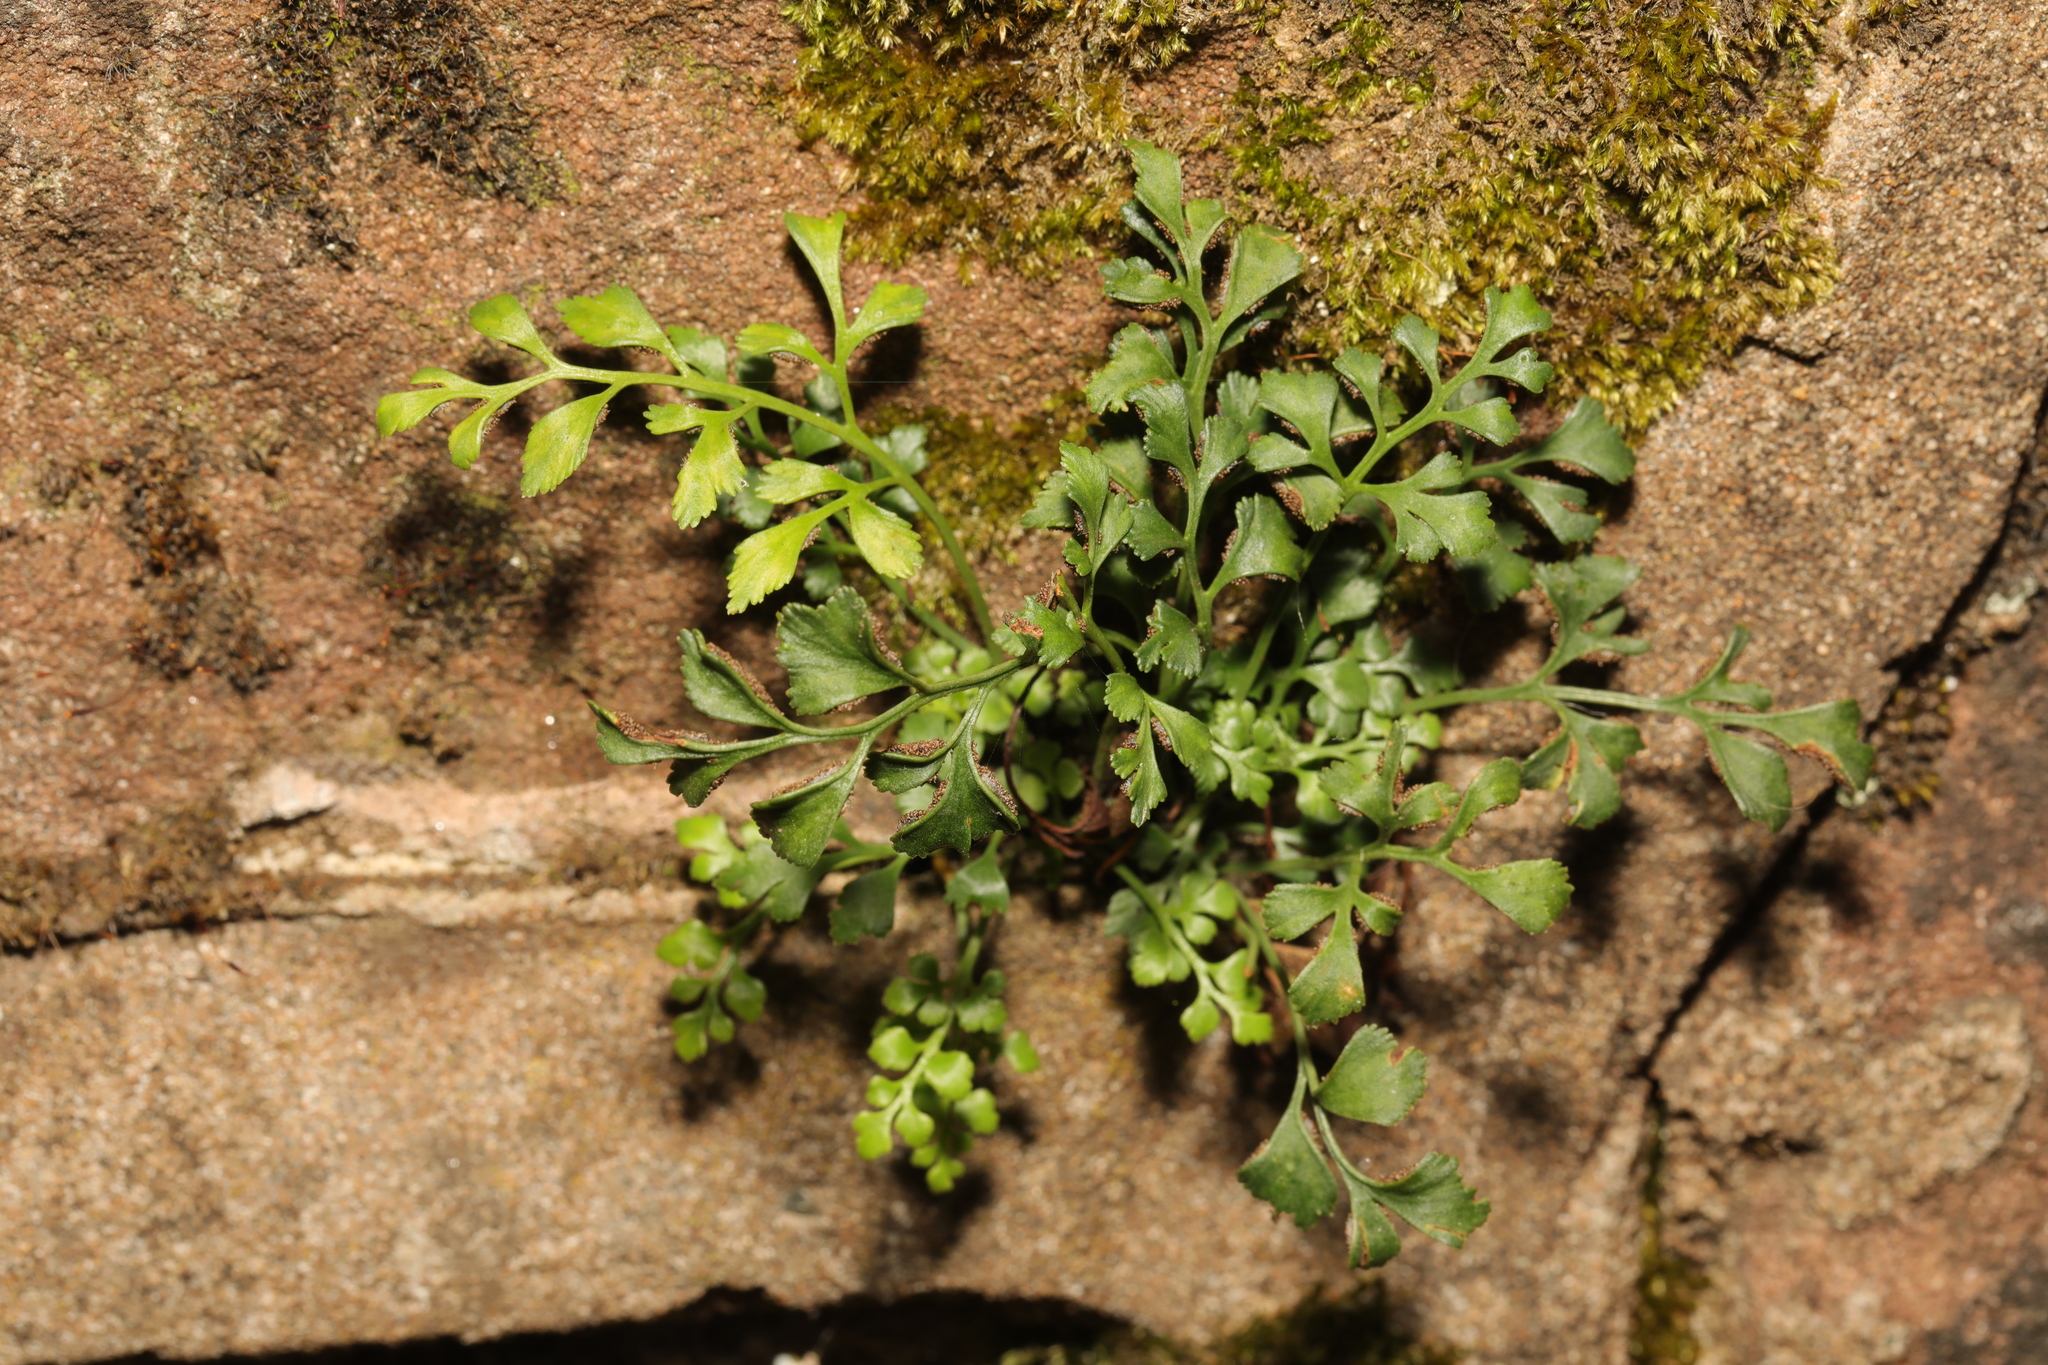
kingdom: Plantae
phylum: Tracheophyta
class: Polypodiopsida
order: Polypodiales
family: Aspleniaceae
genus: Asplenium
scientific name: Asplenium ruta-muraria
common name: Wall-rue
